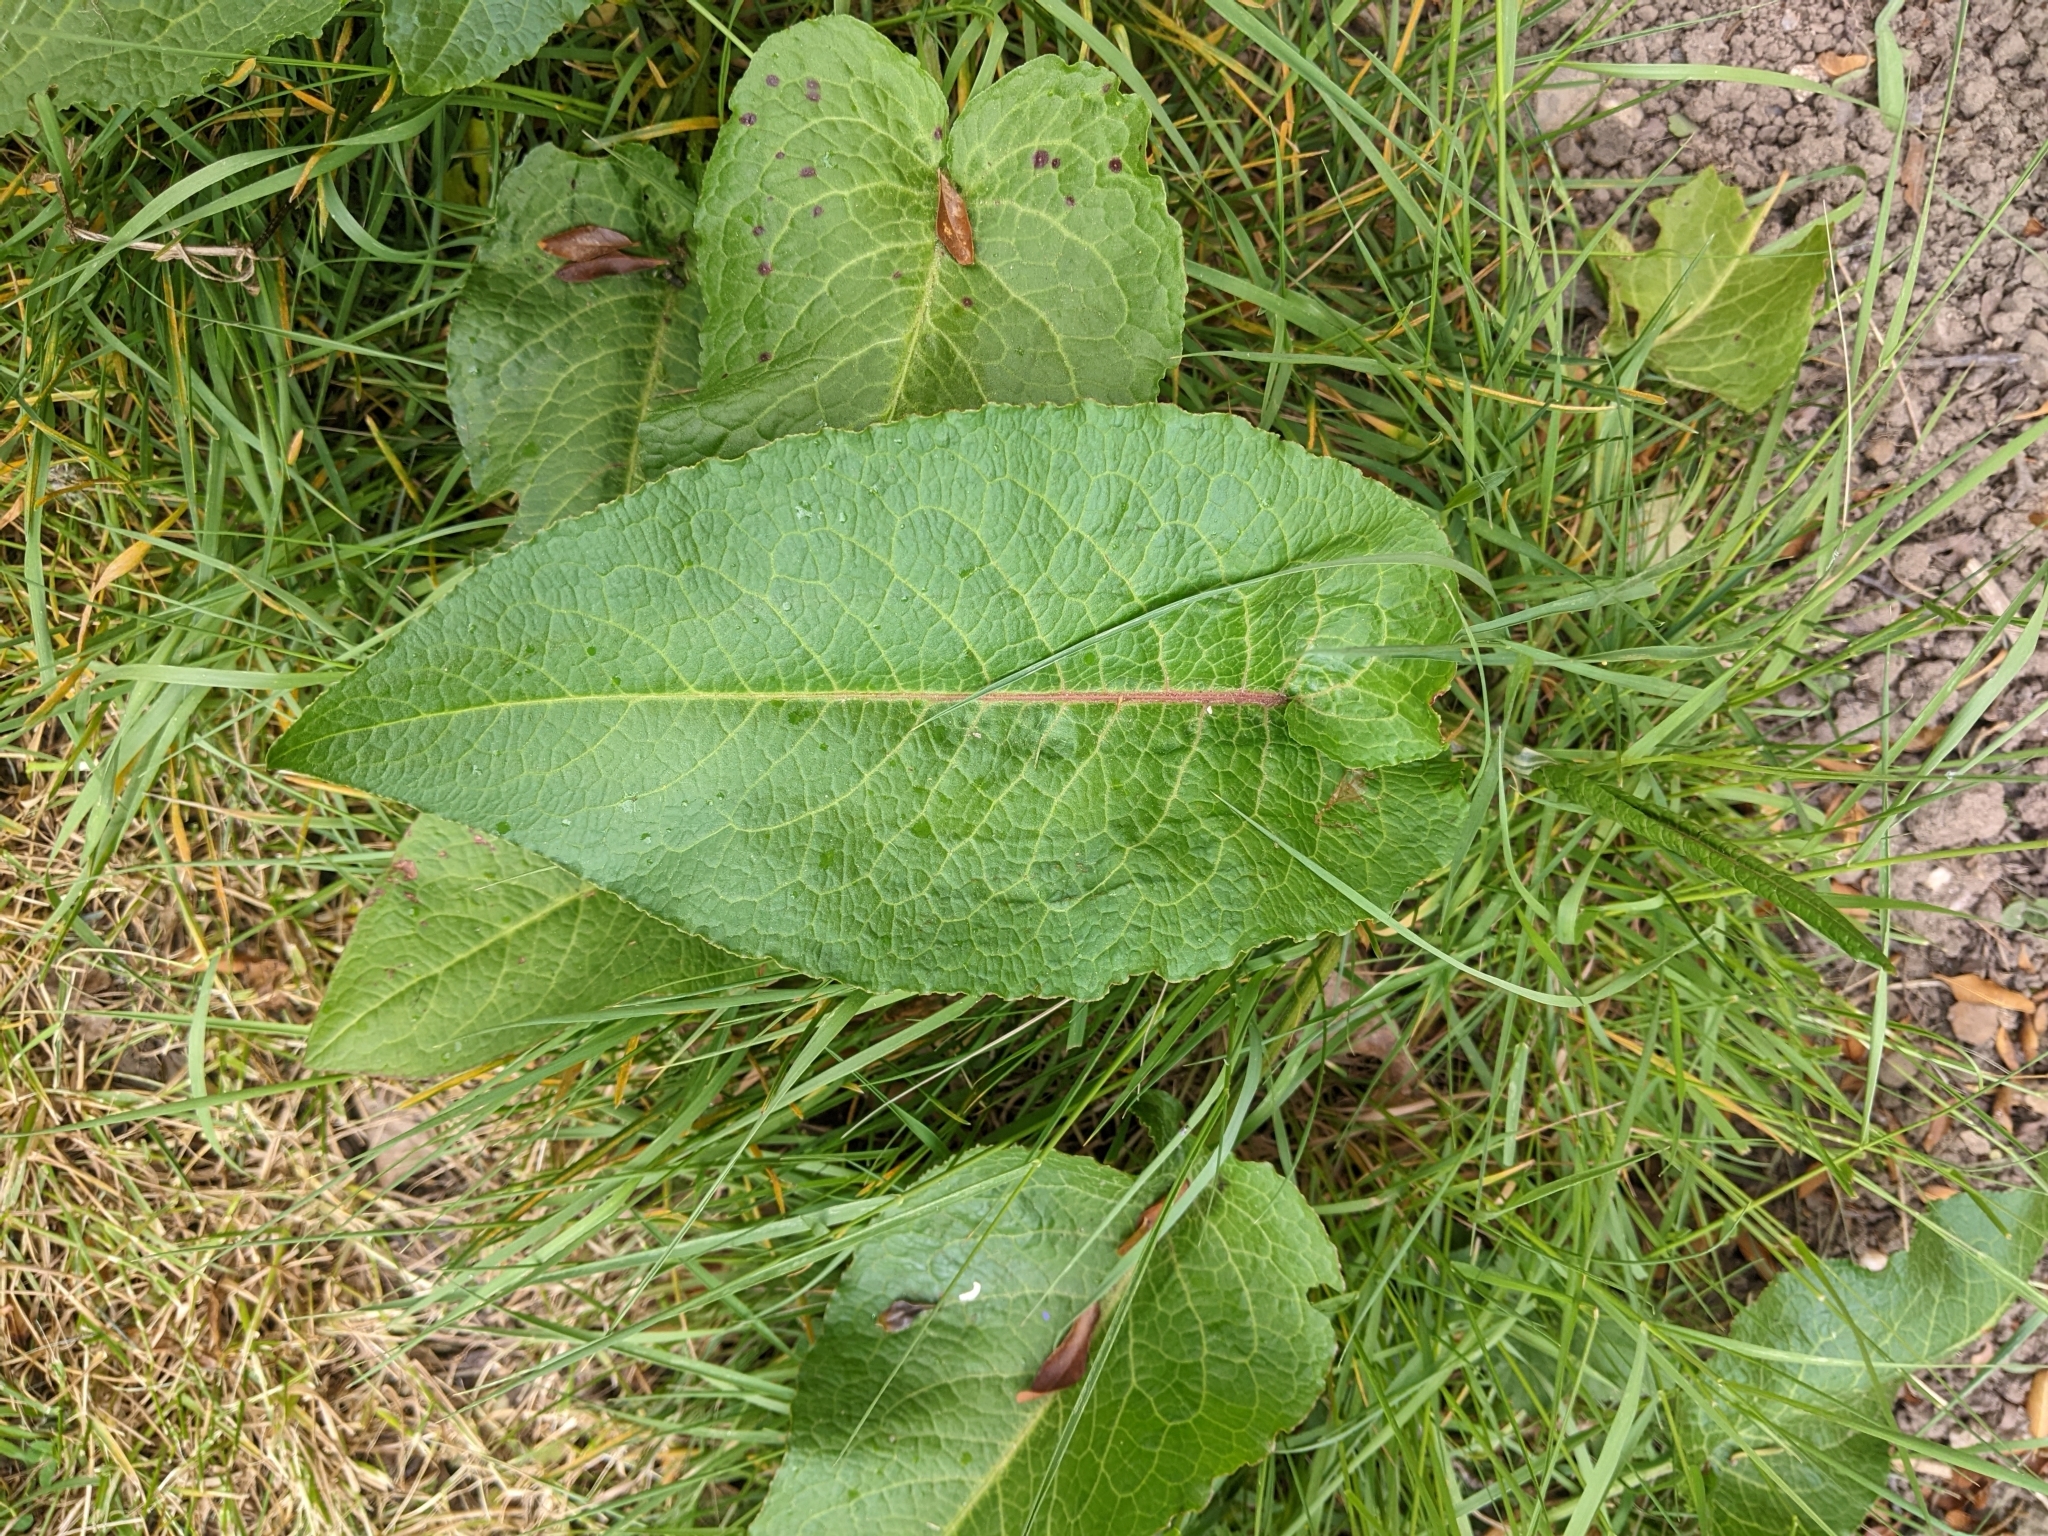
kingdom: Plantae
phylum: Tracheophyta
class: Magnoliopsida
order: Caryophyllales
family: Polygonaceae
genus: Rumex
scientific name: Rumex obtusifolius
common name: Bitter dock
